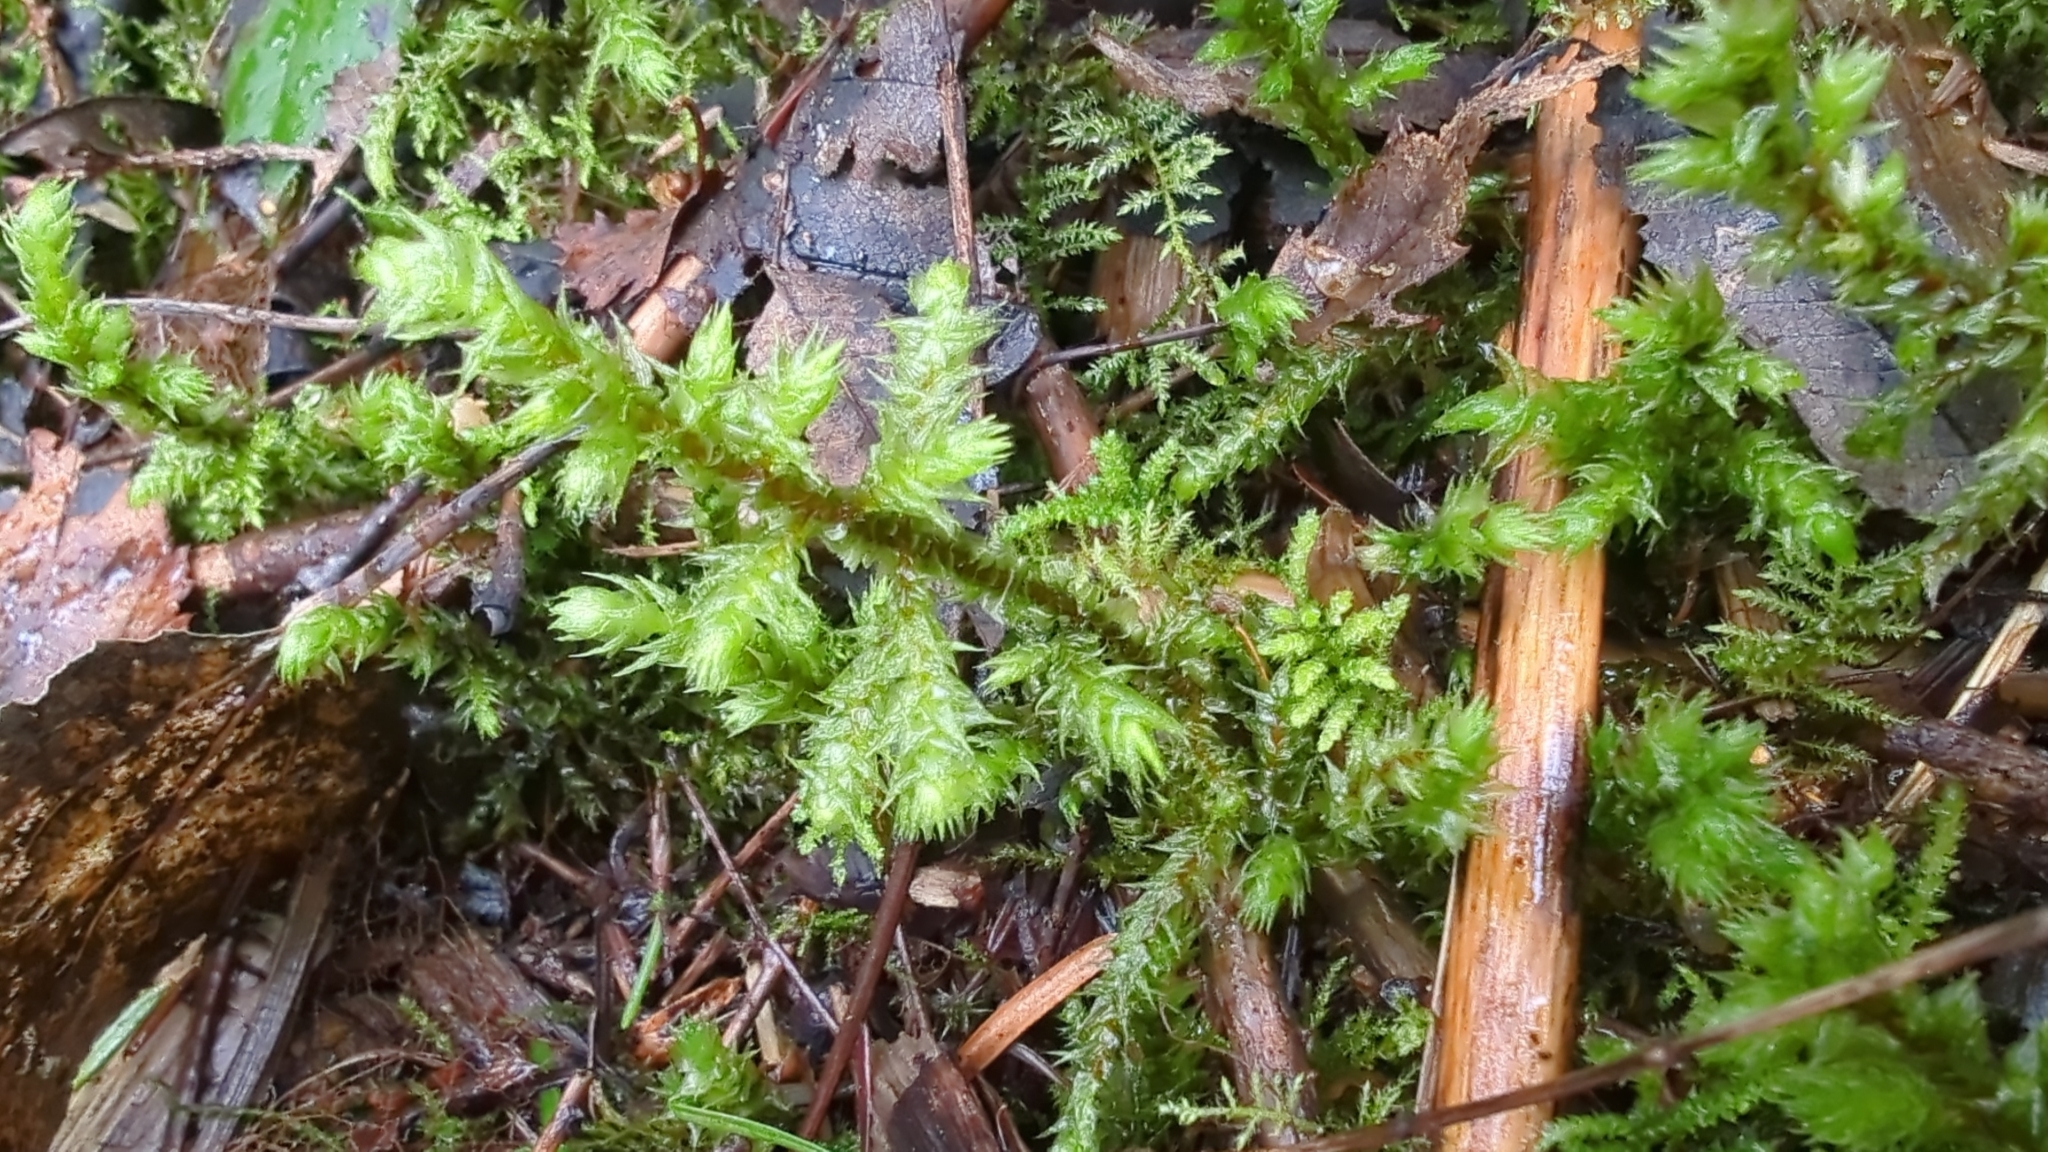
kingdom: Plantae
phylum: Bryophyta
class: Bryopsida
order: Hypnales
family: Hylocomiaceae
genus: Hylocomiadelphus
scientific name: Hylocomiadelphus triquetrus
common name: Rough goose neck moss
